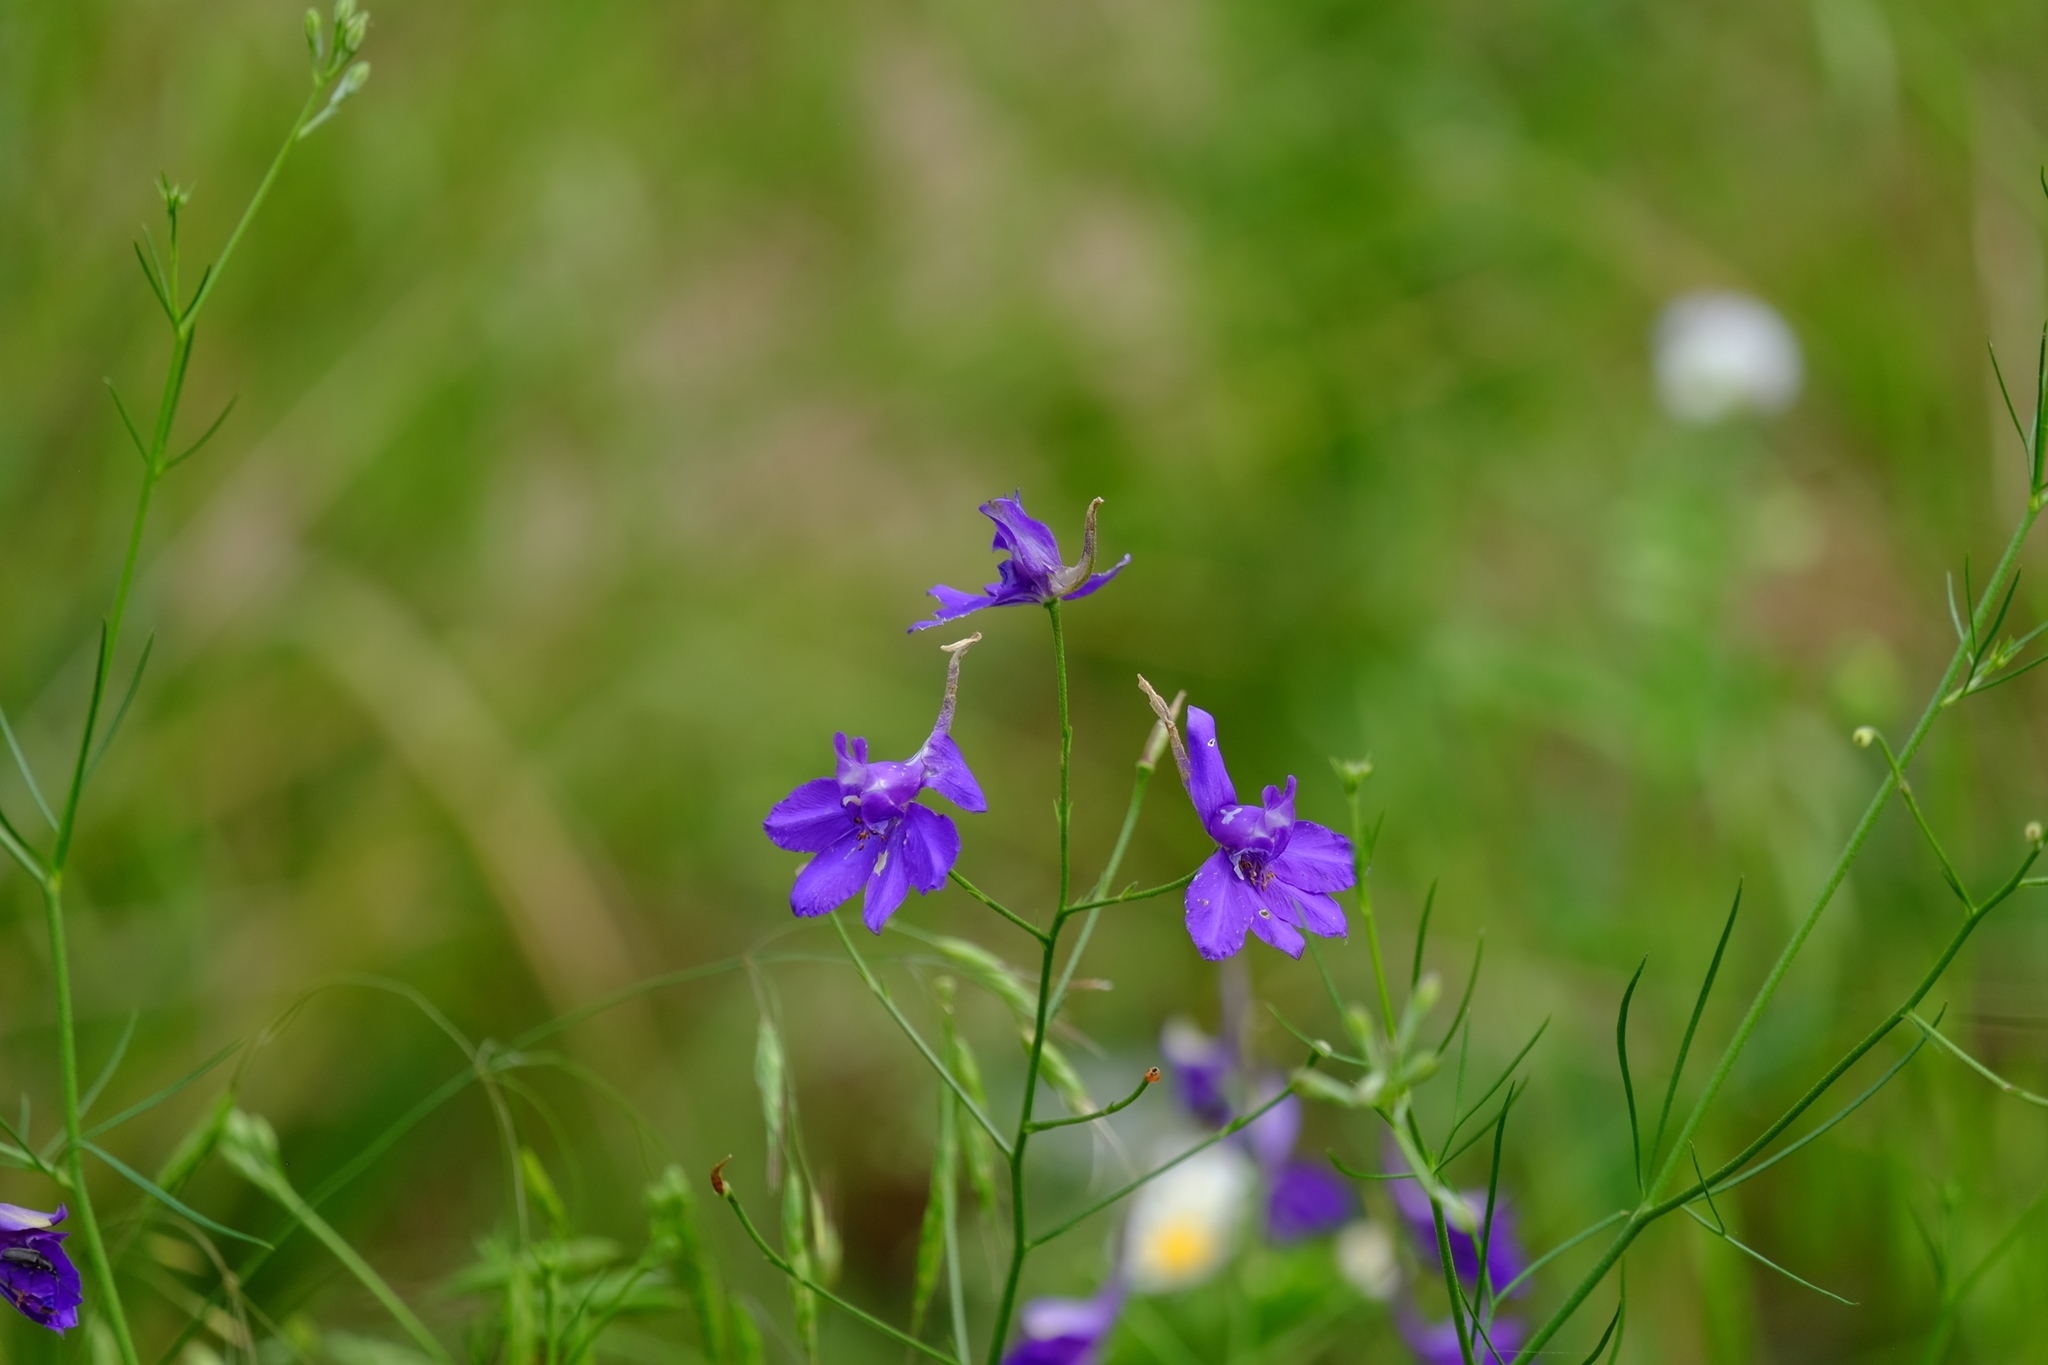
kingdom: Plantae
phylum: Tracheophyta
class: Magnoliopsida
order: Ranunculales
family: Ranunculaceae
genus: Delphinium
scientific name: Delphinium consolida
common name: Branching larkspur
